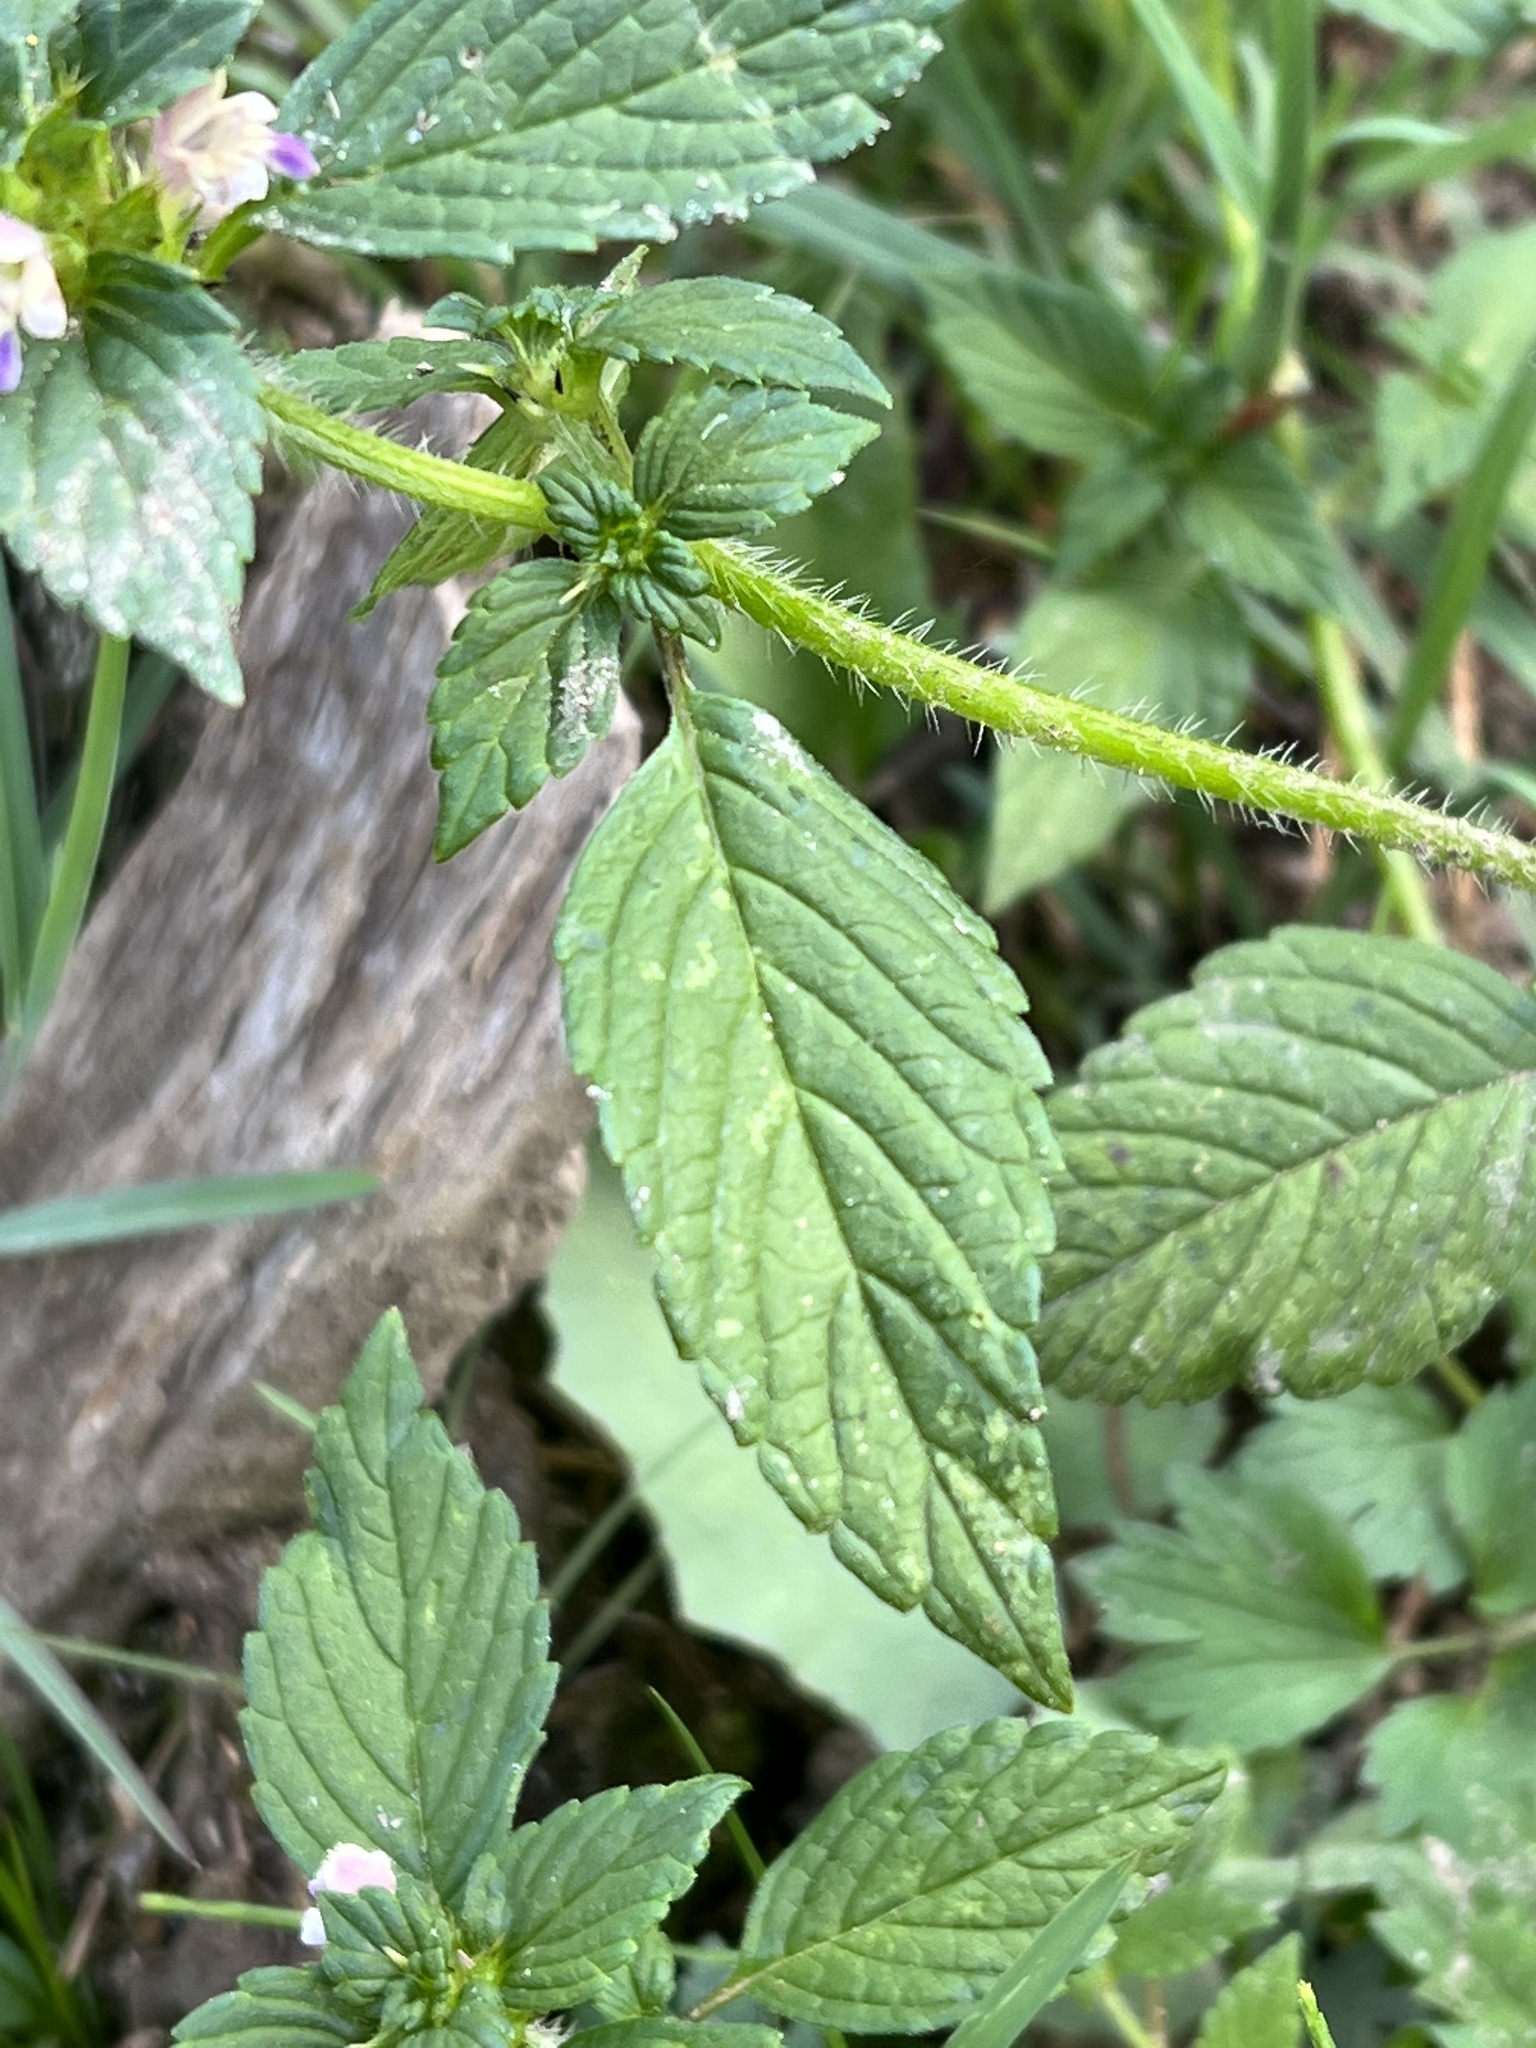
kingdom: Plantae
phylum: Tracheophyta
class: Magnoliopsida
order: Lamiales
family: Lamiaceae
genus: Galeopsis
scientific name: Galeopsis bifida
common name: Bifid hemp-nettle
